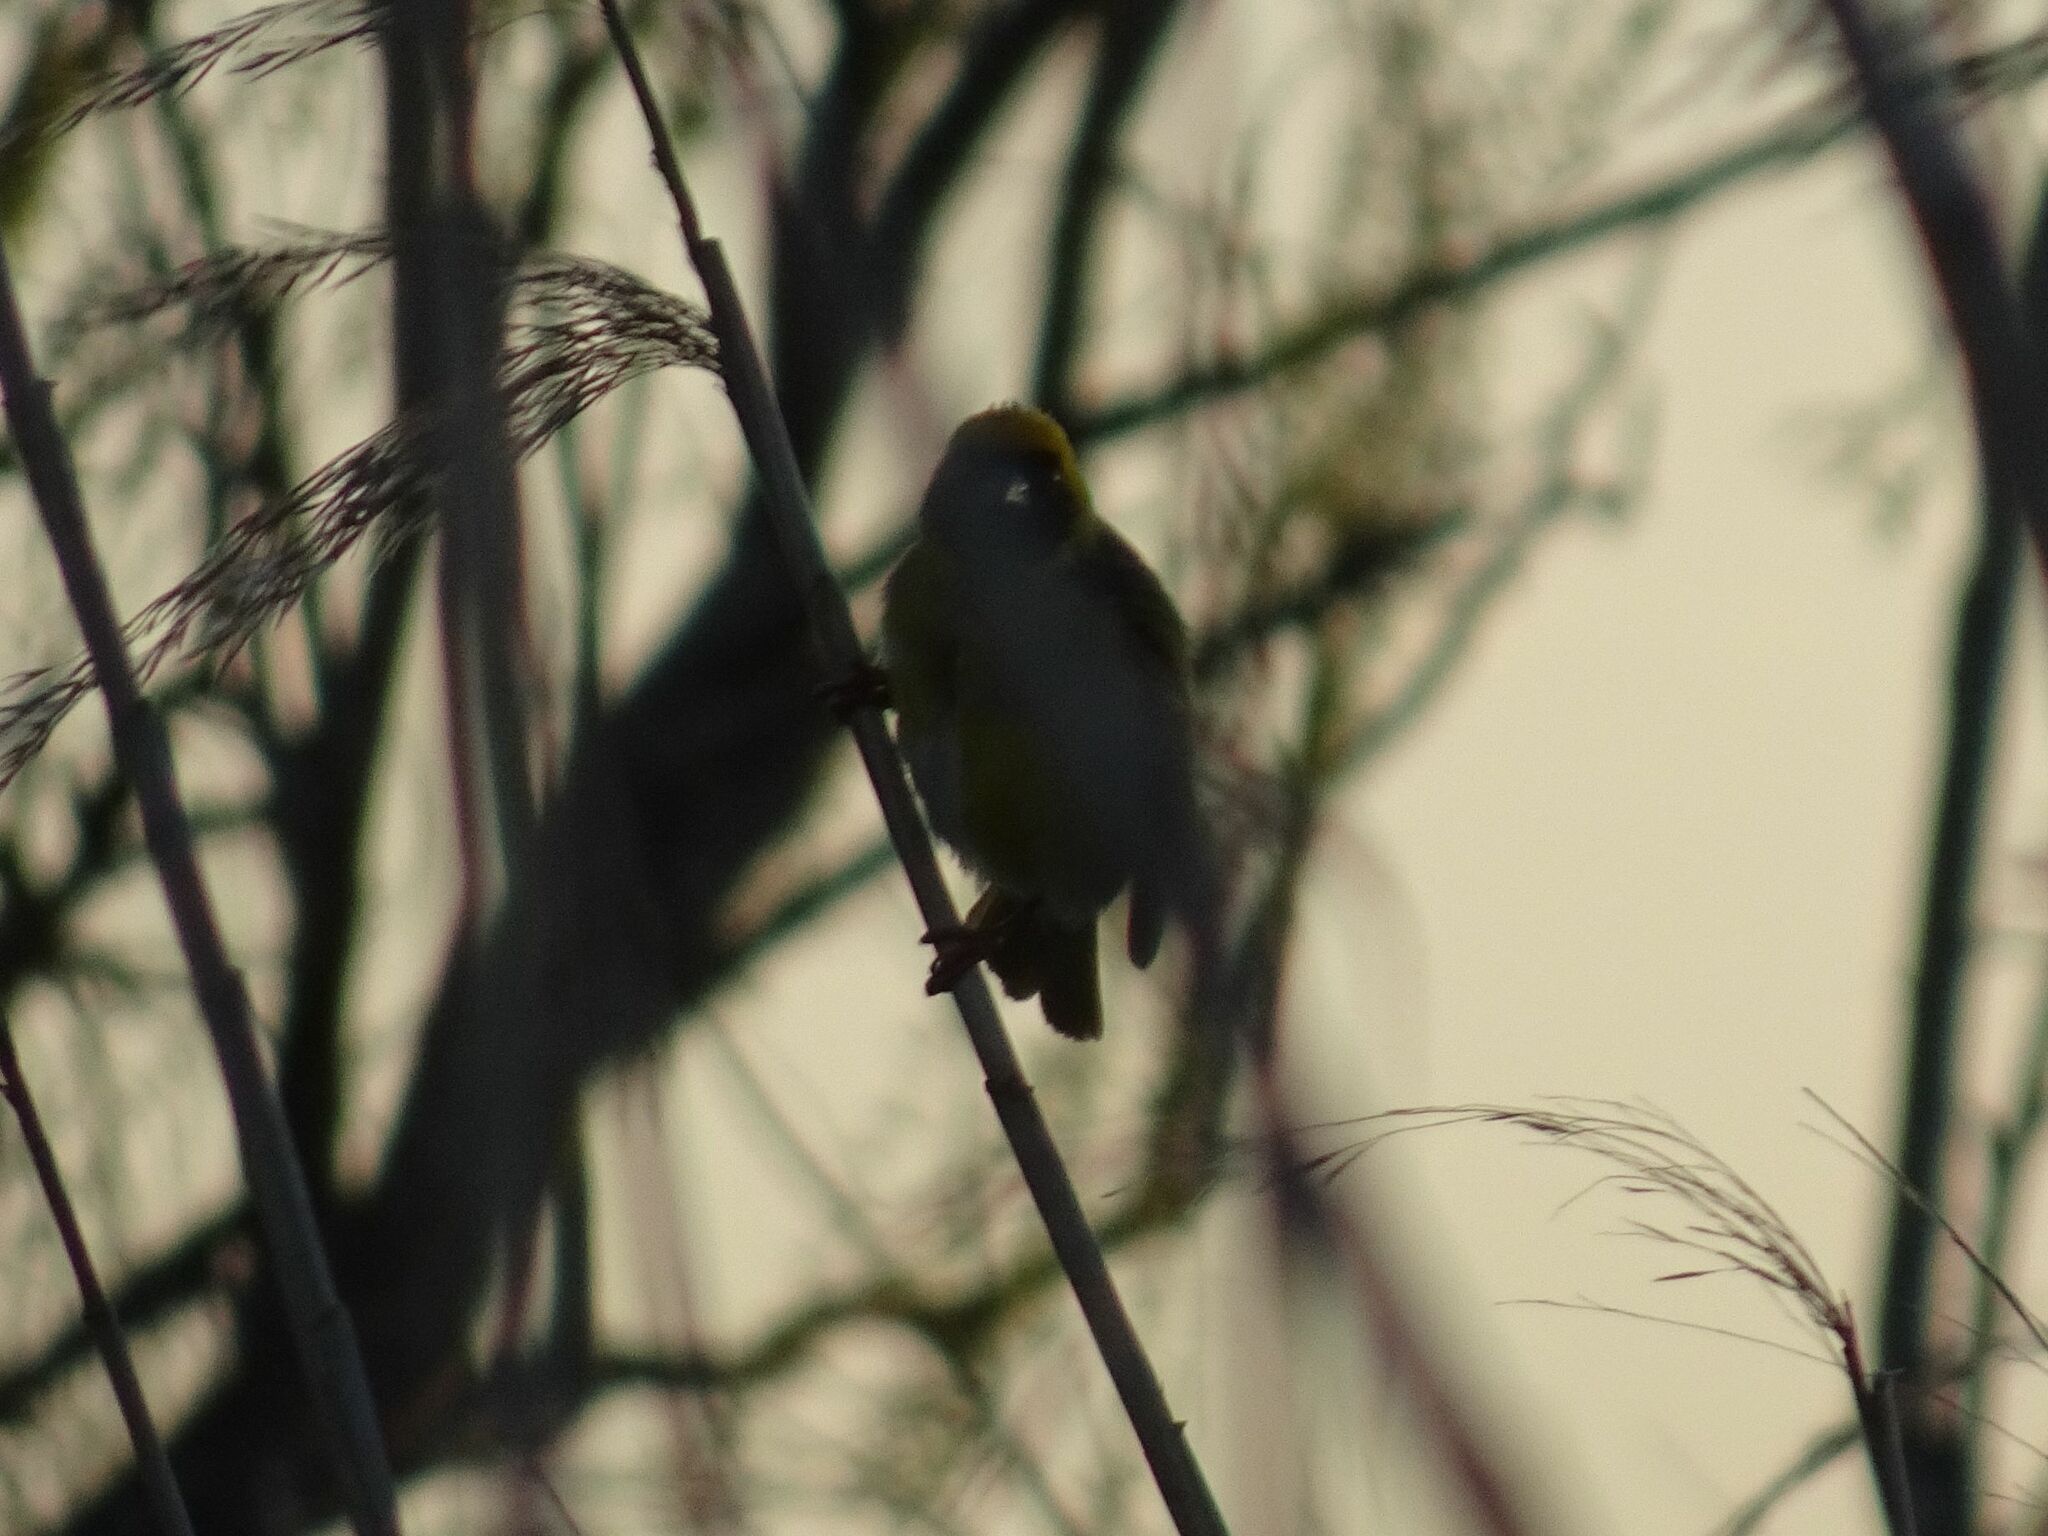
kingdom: Animalia
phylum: Chordata
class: Aves
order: Passeriformes
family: Ploceidae
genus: Ploceus
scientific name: Ploceus velatus
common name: Southern masked weaver
